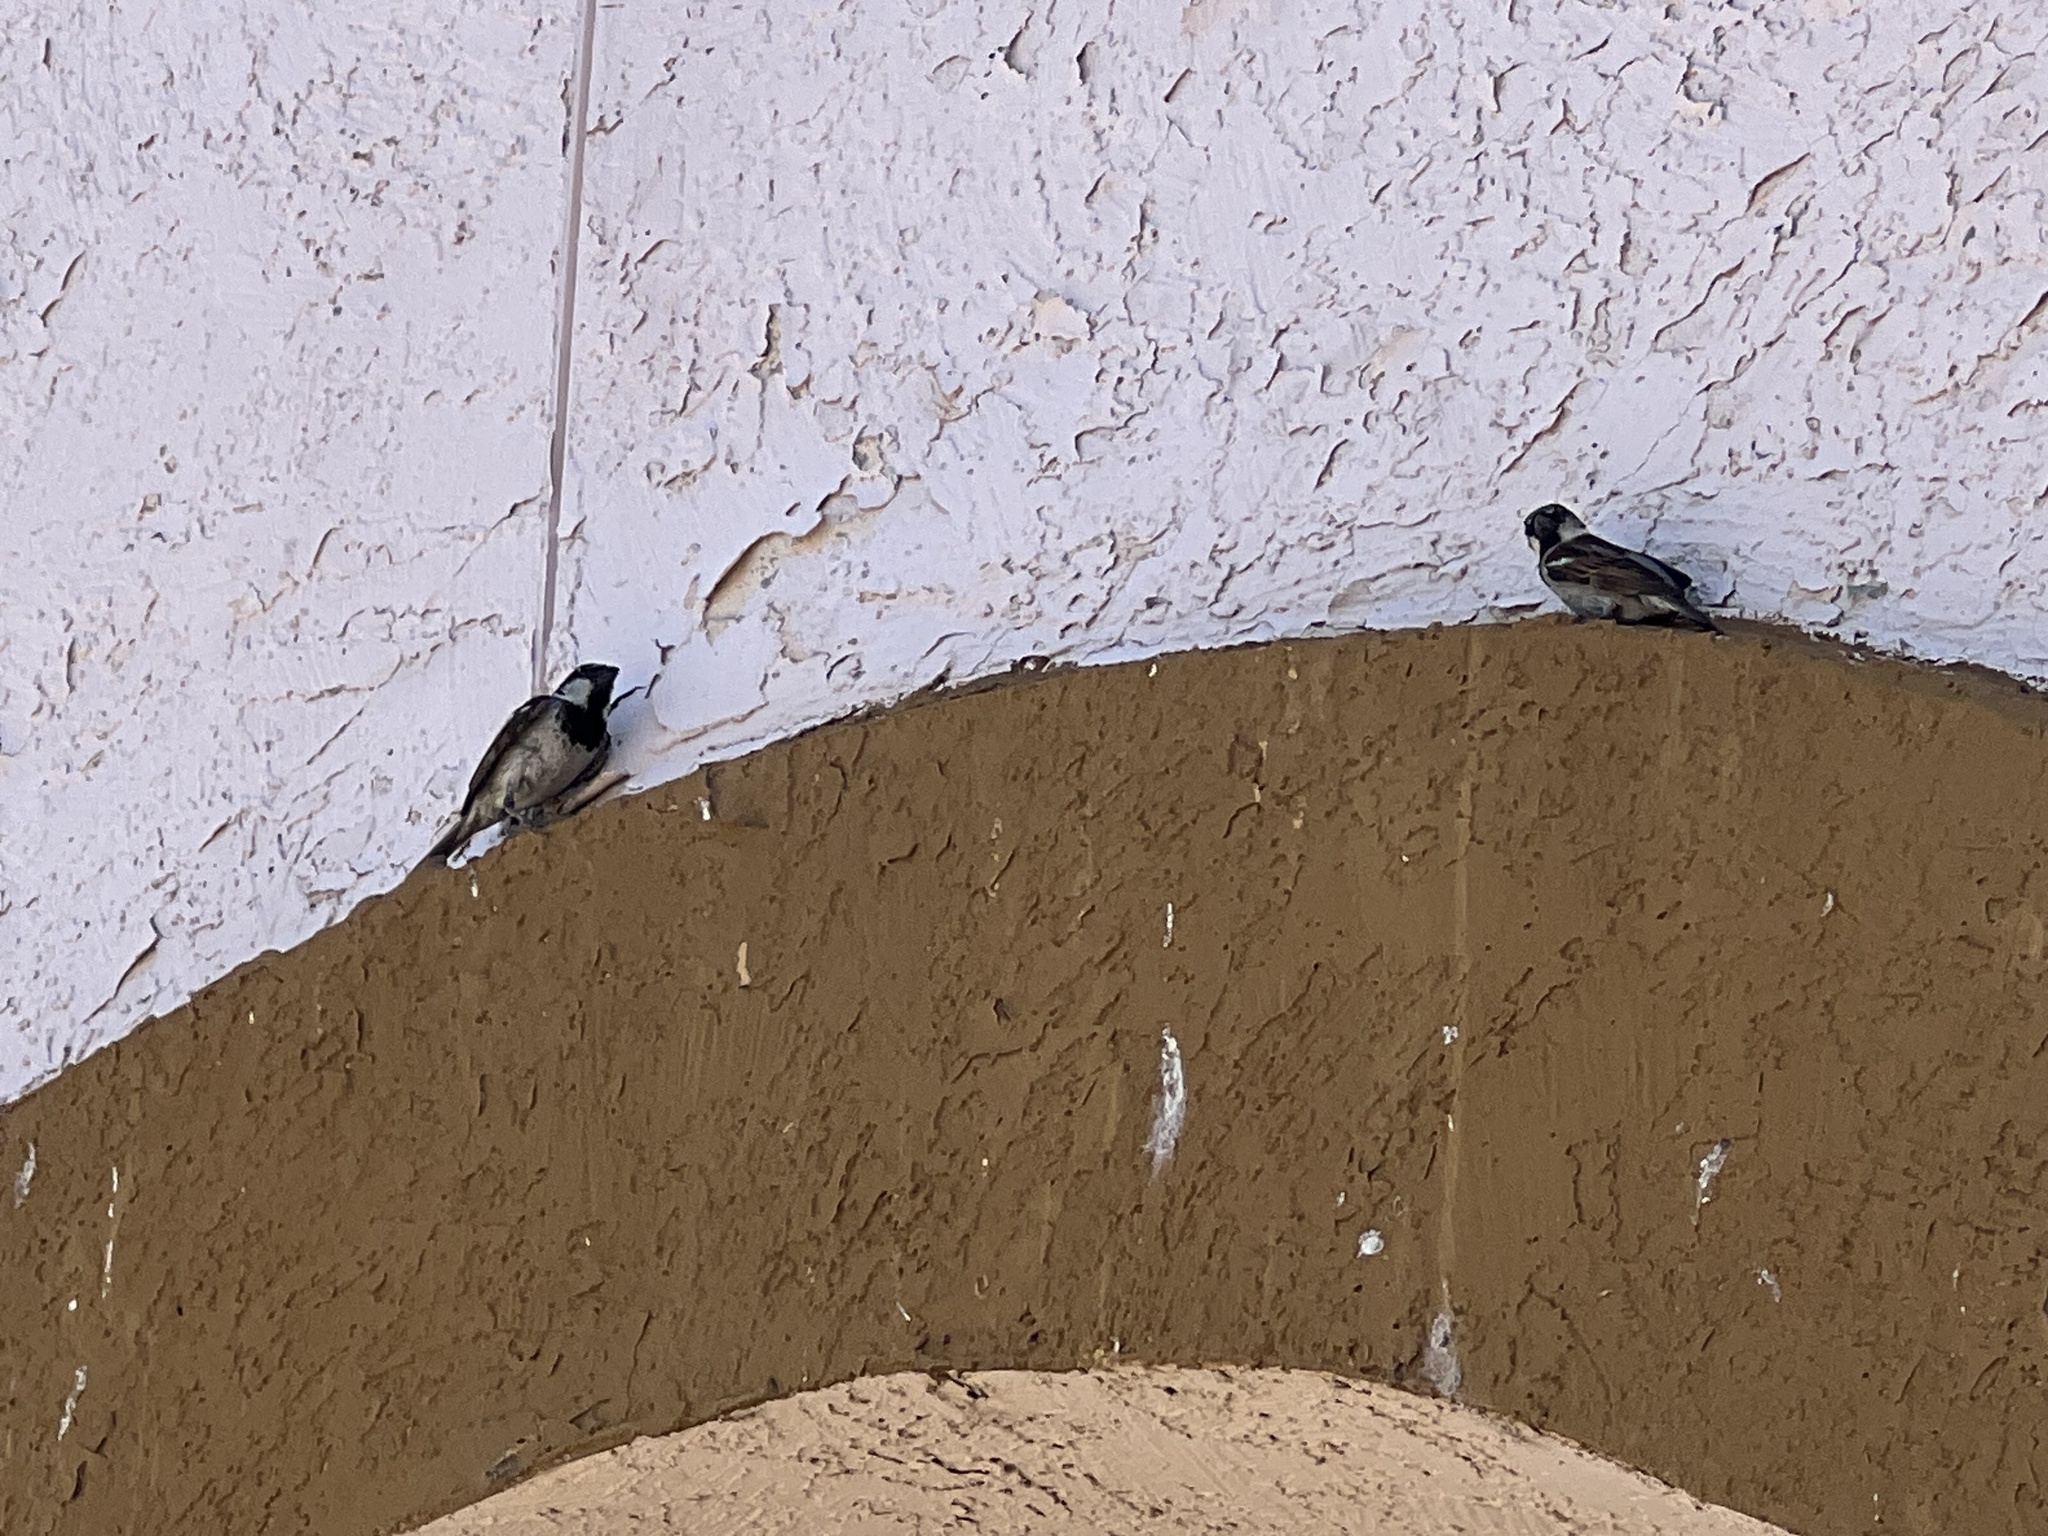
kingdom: Animalia
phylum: Chordata
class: Aves
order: Passeriformes
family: Passeridae
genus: Passer
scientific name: Passer domesticus
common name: House sparrow
